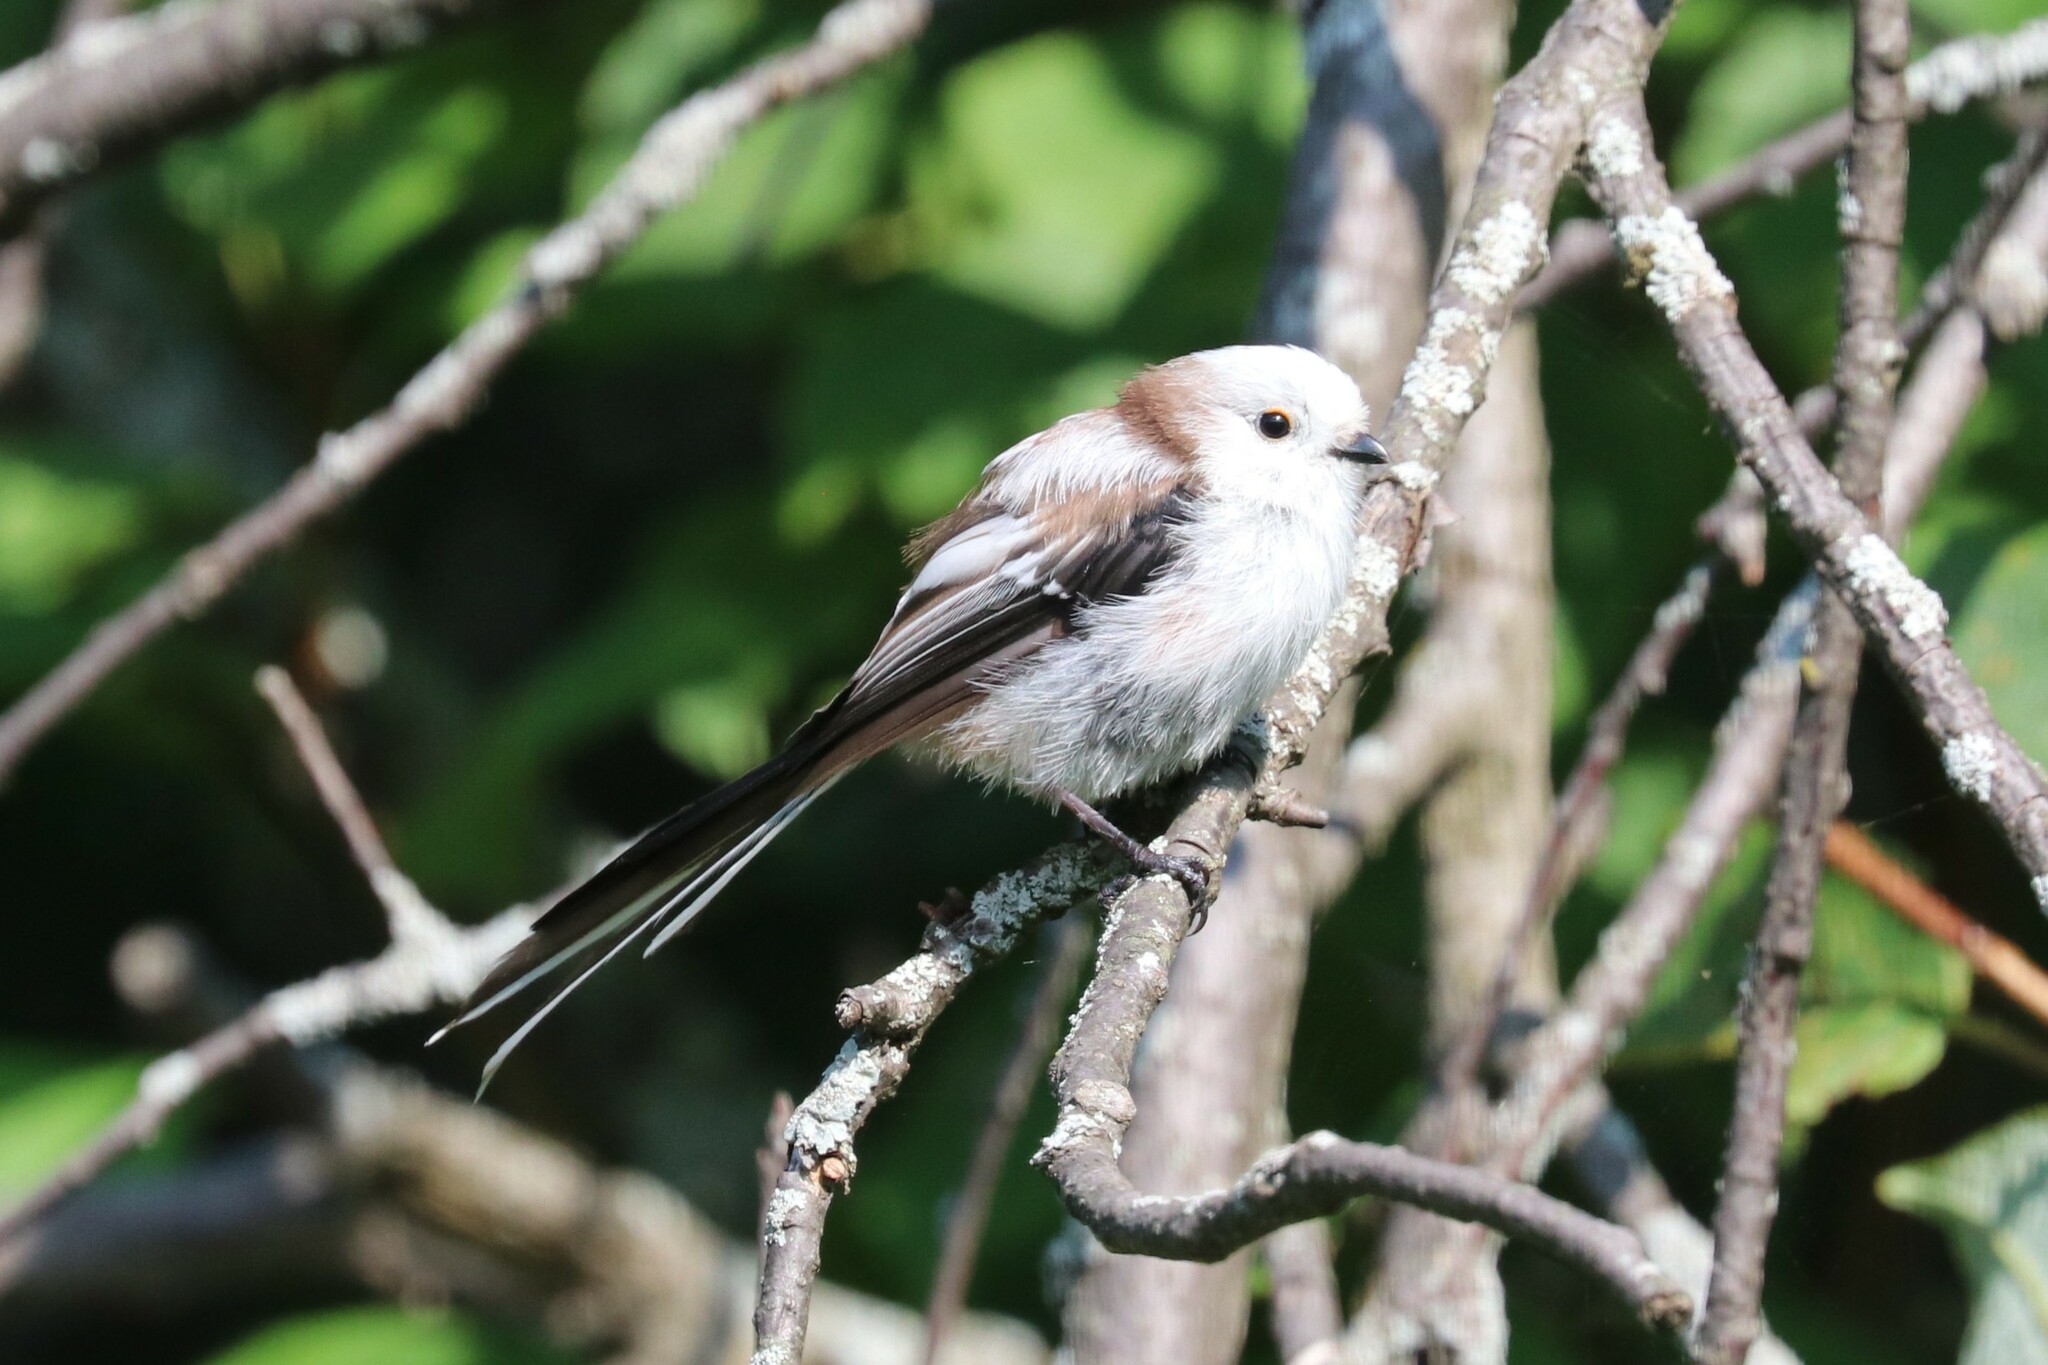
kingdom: Animalia
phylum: Chordata
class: Aves
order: Passeriformes
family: Aegithalidae
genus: Aegithalos
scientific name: Aegithalos caudatus
